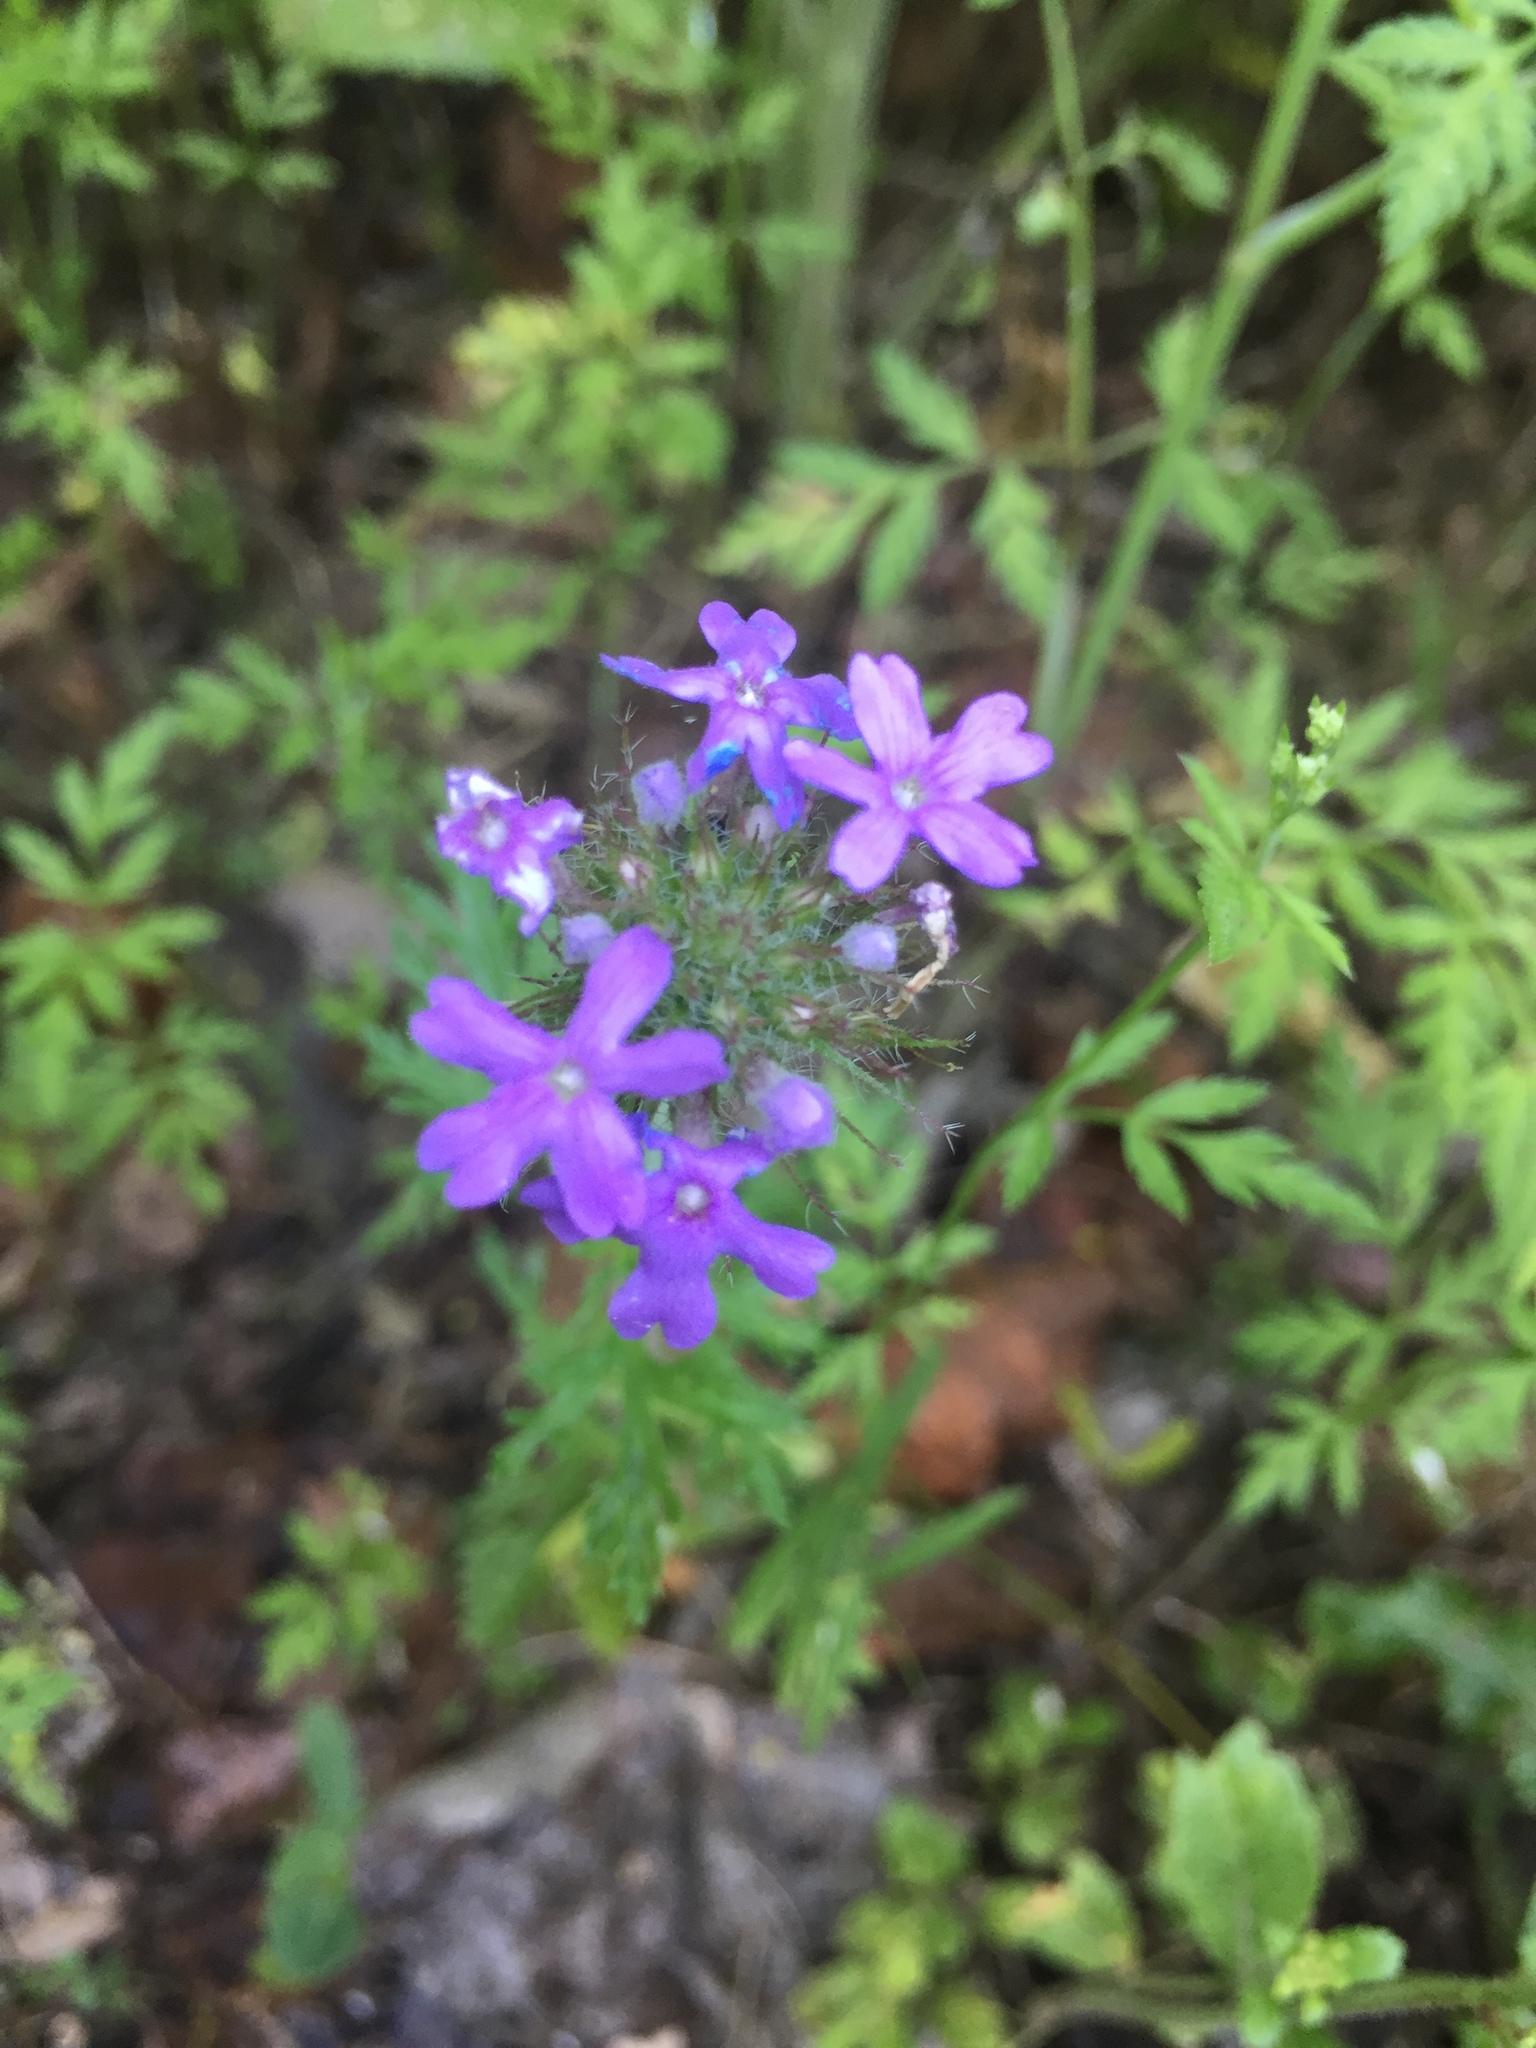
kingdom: Plantae
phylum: Tracheophyta
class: Magnoliopsida
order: Lamiales
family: Verbenaceae
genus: Verbena
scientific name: Verbena bipinnatifida
